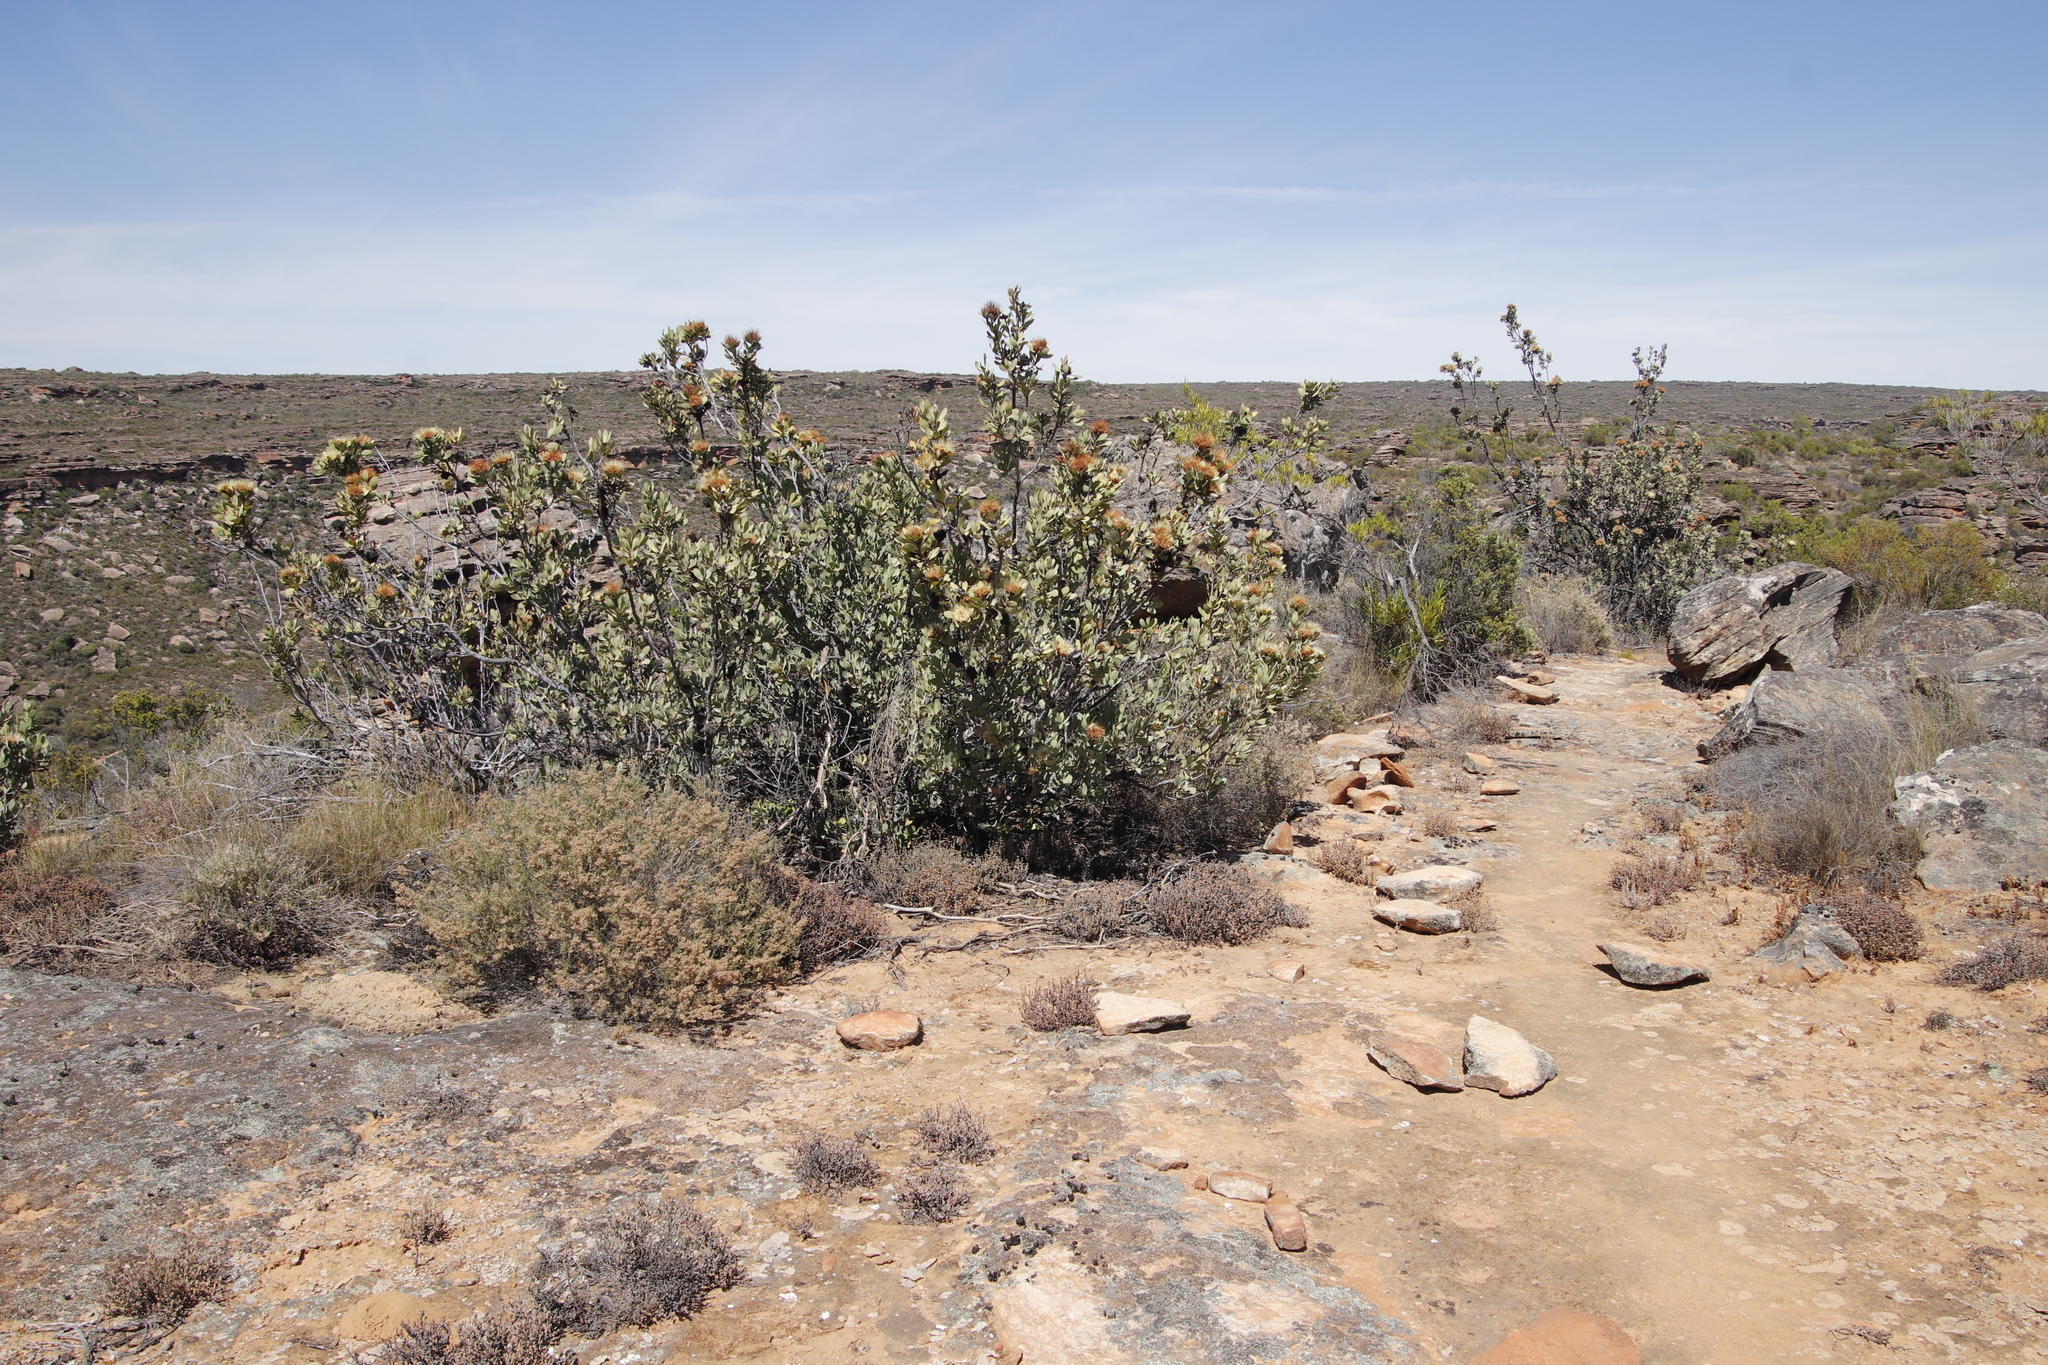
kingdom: Plantae
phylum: Tracheophyta
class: Magnoliopsida
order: Proteales
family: Proteaceae
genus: Protea
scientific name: Protea glabra
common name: Chestnut sugarbush
